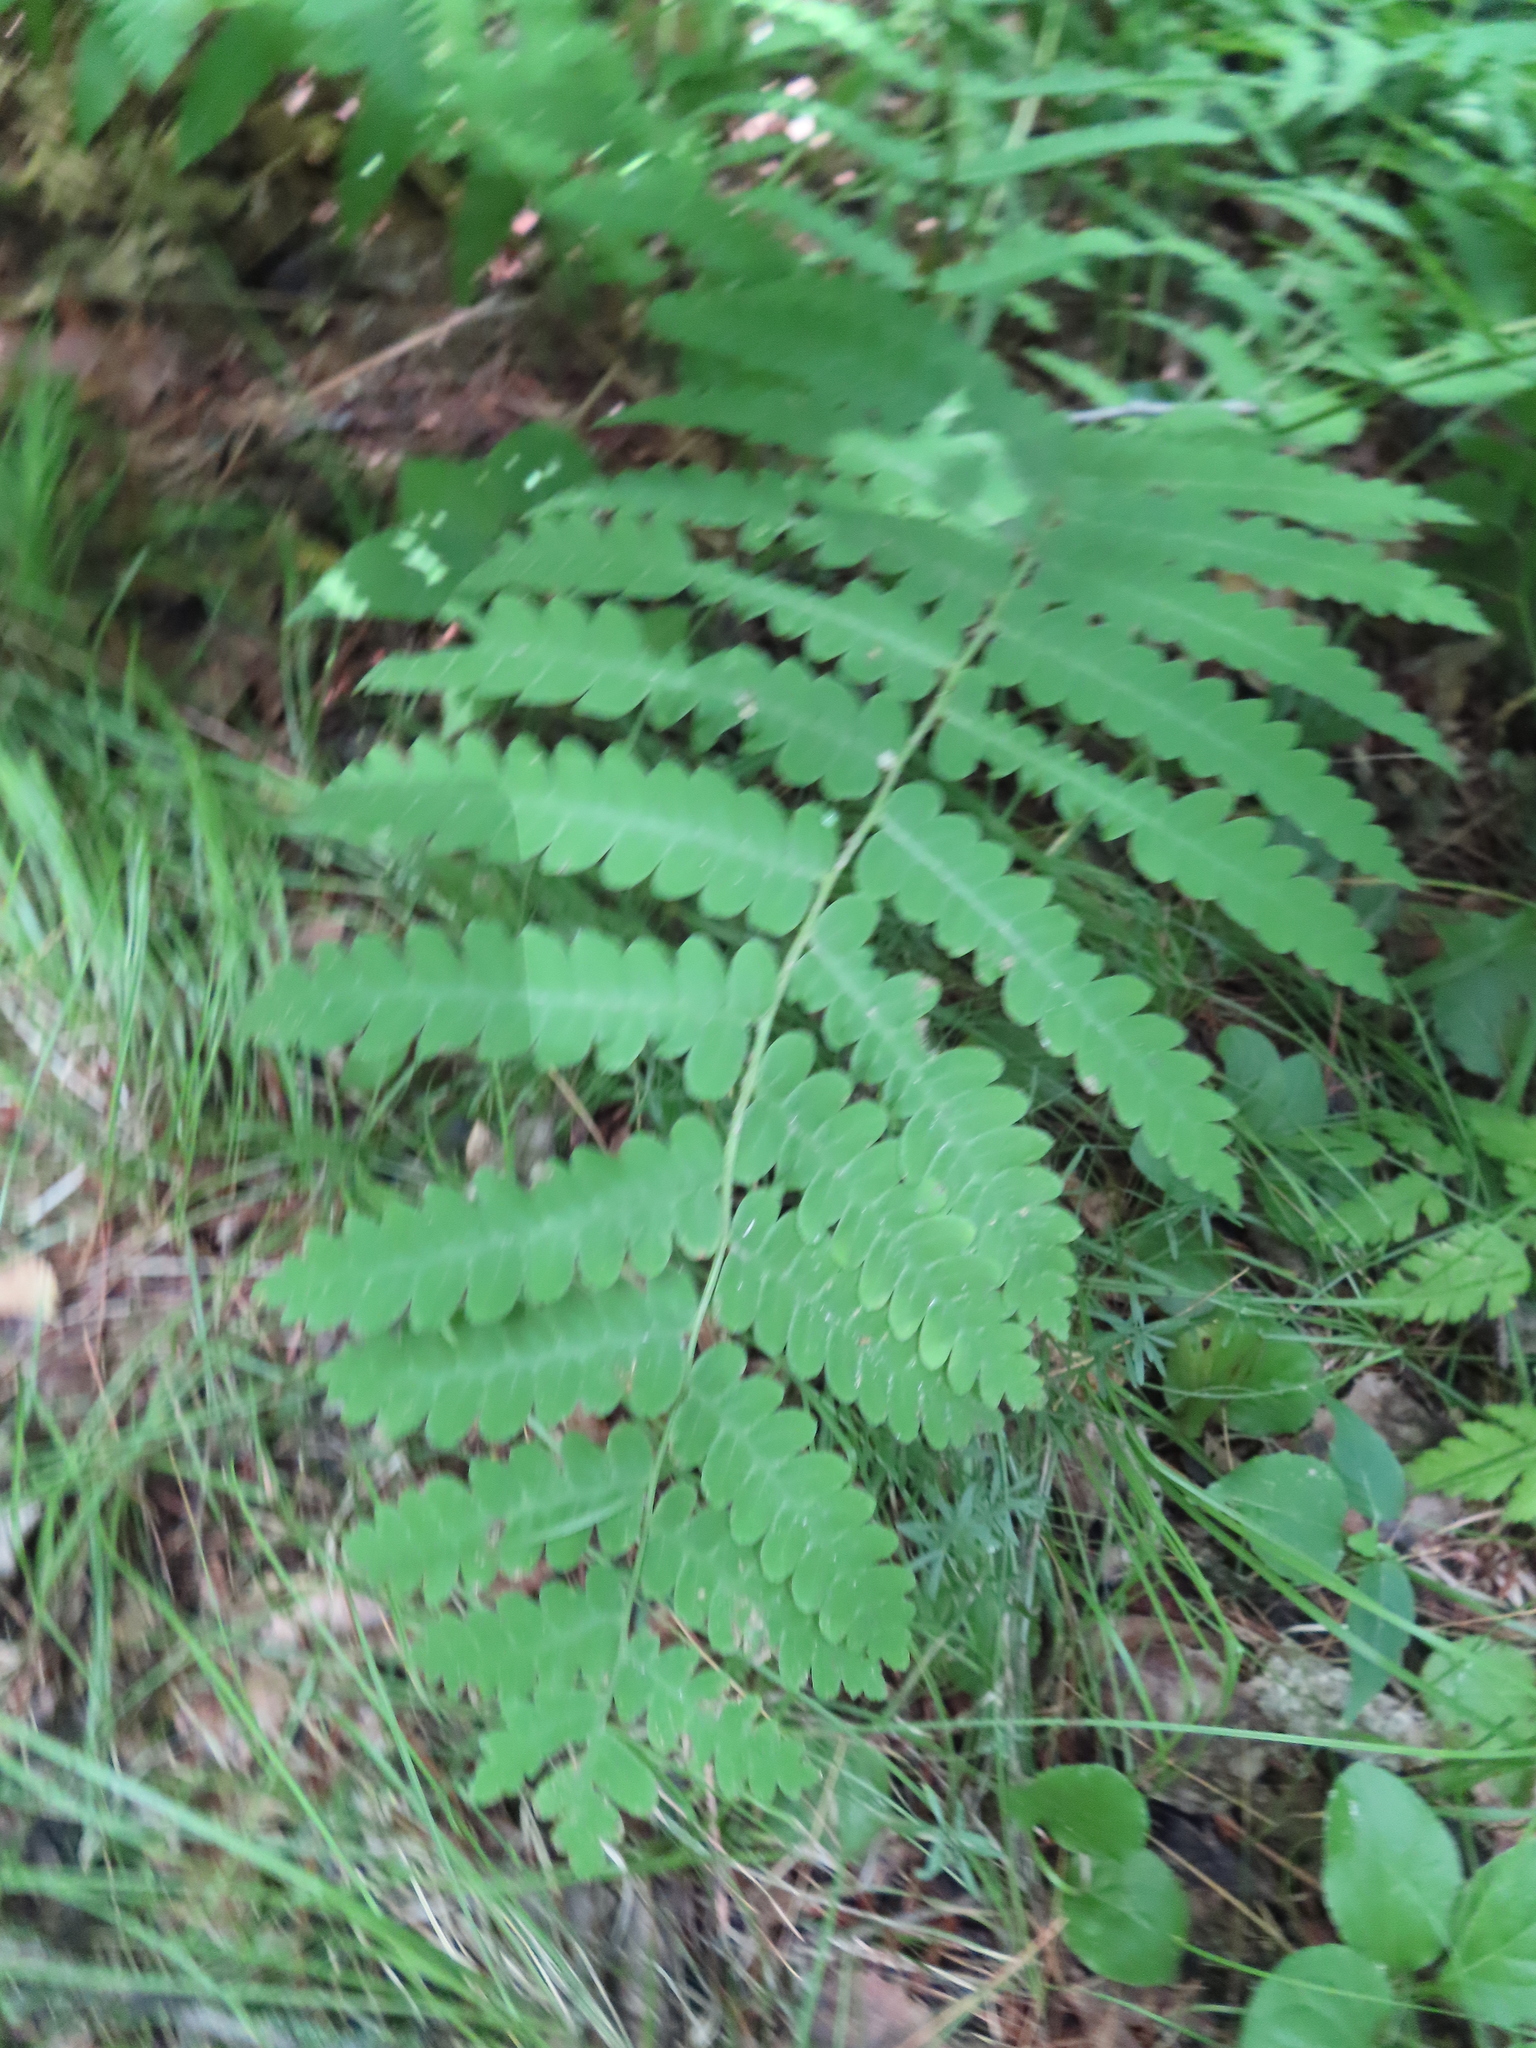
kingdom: Plantae
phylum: Tracheophyta
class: Polypodiopsida
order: Osmundales
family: Osmundaceae
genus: Claytosmunda
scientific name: Claytosmunda claytoniana
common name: Clayton's fern
